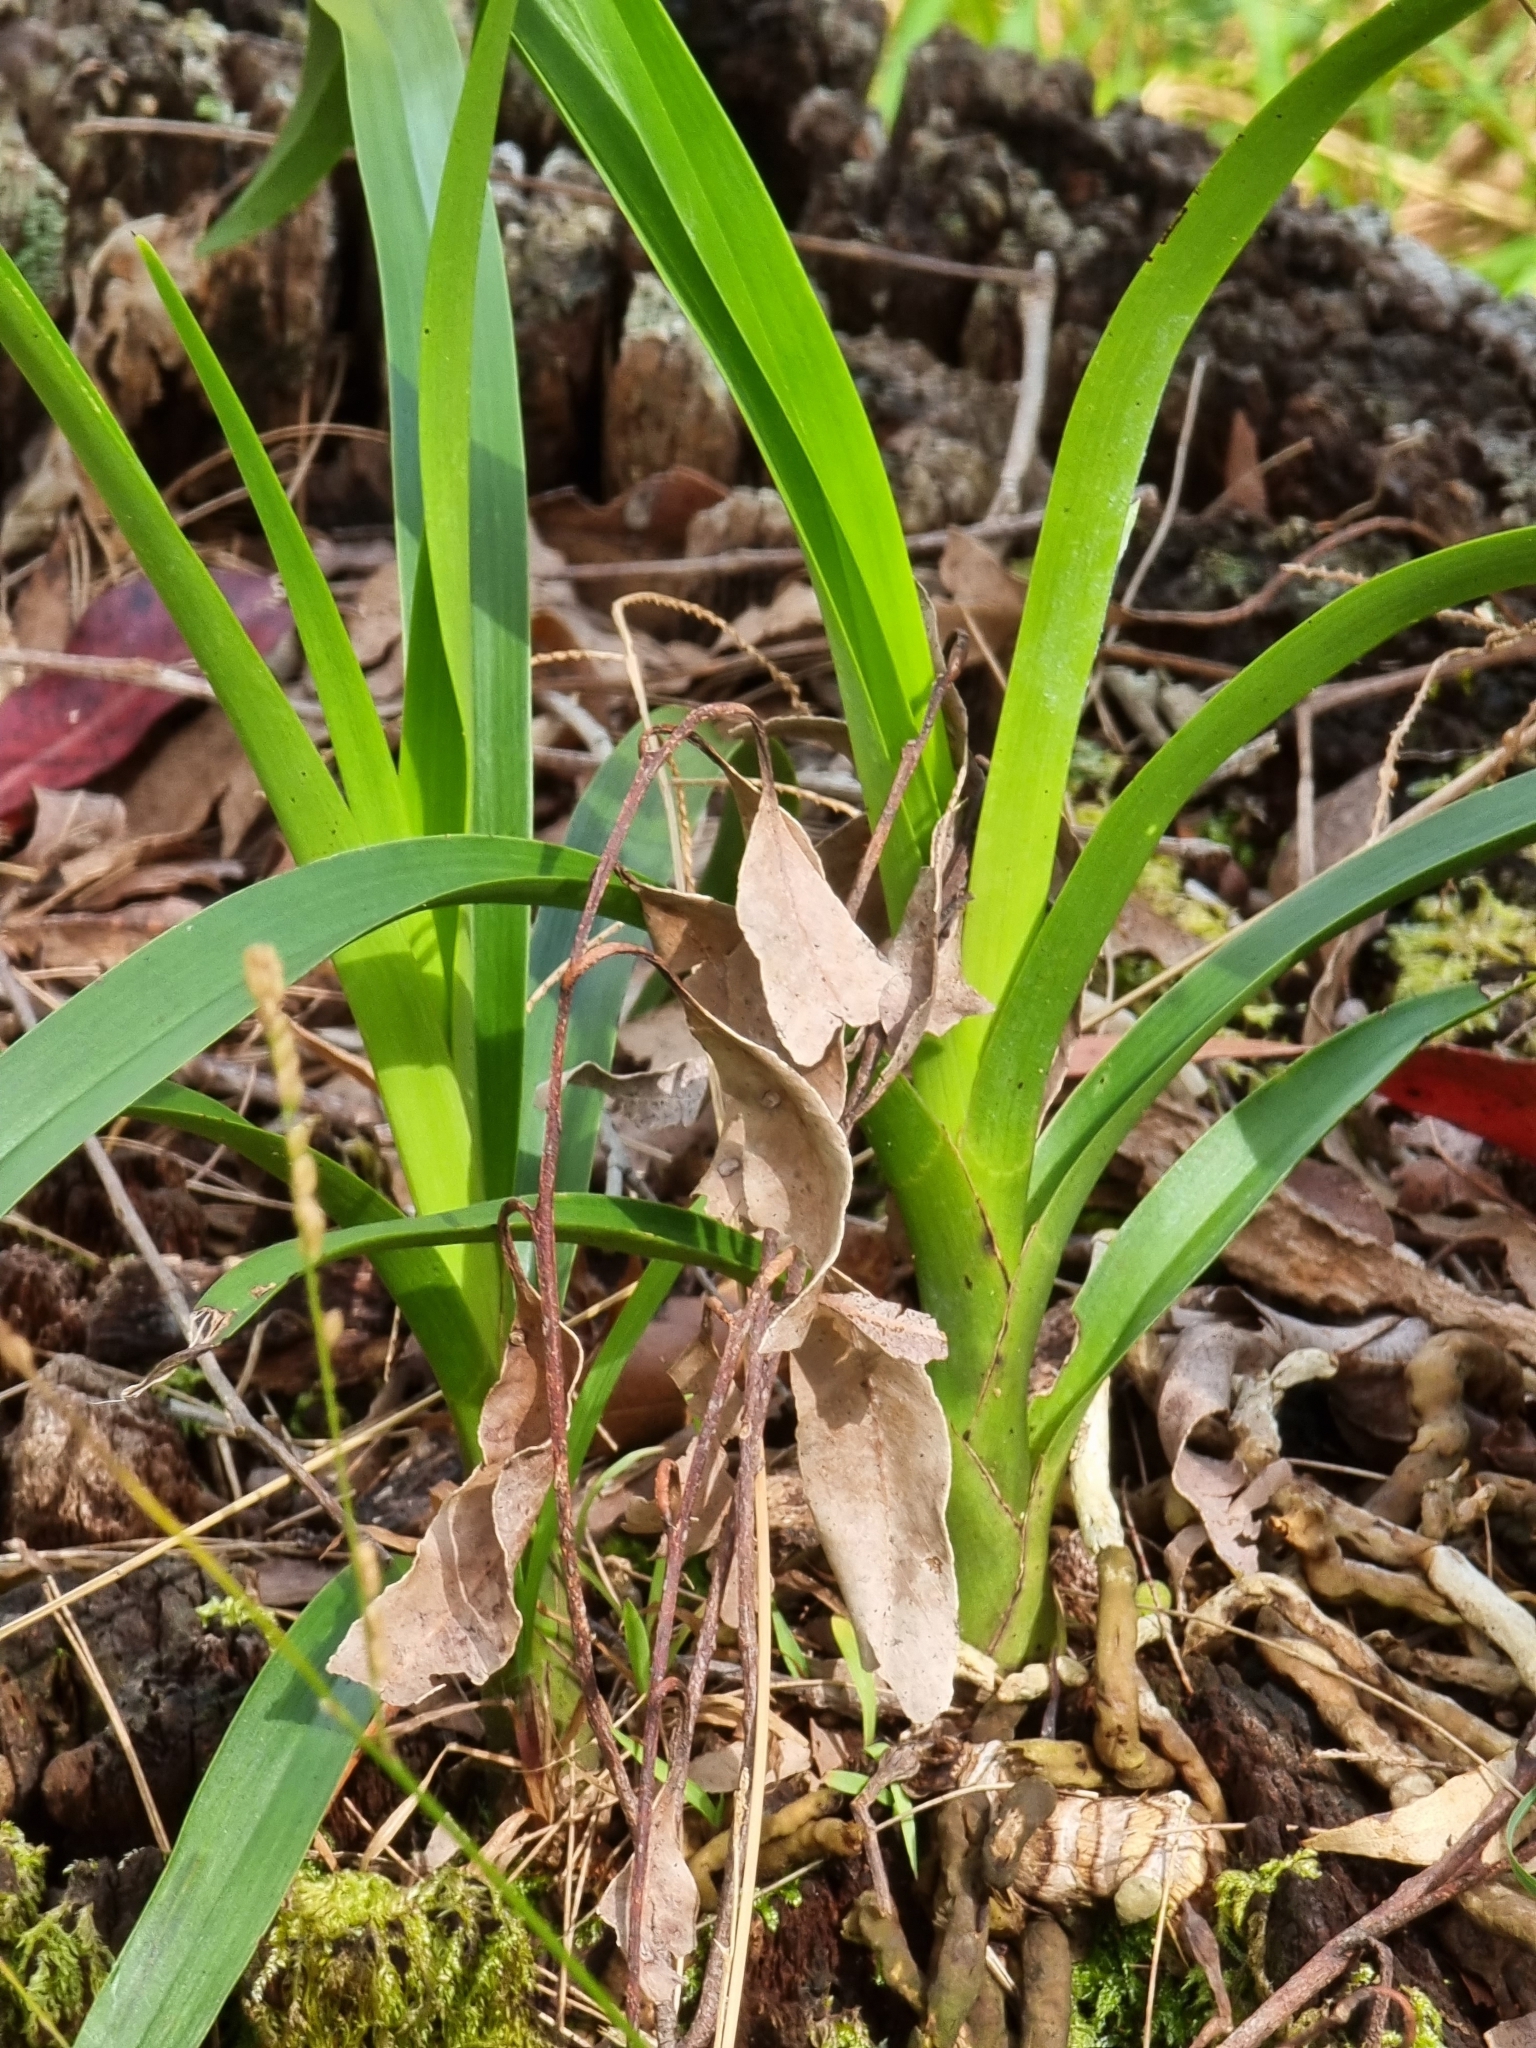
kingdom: Plantae
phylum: Tracheophyta
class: Liliopsida
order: Asparagales
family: Orchidaceae
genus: Cymbidium
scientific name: Cymbidium madidum
